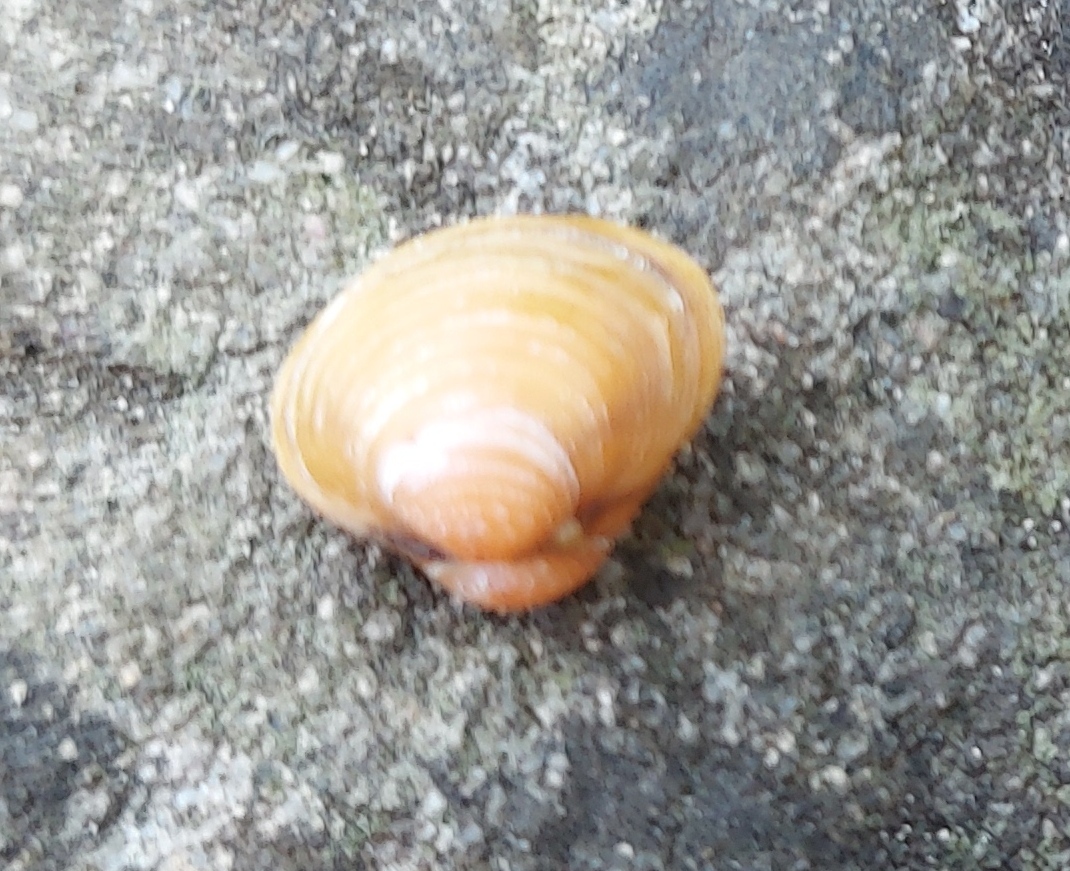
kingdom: Animalia
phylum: Mollusca
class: Bivalvia
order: Venerida
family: Cyrenidae
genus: Corbicula
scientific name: Corbicula fluminea
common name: Asian clam
